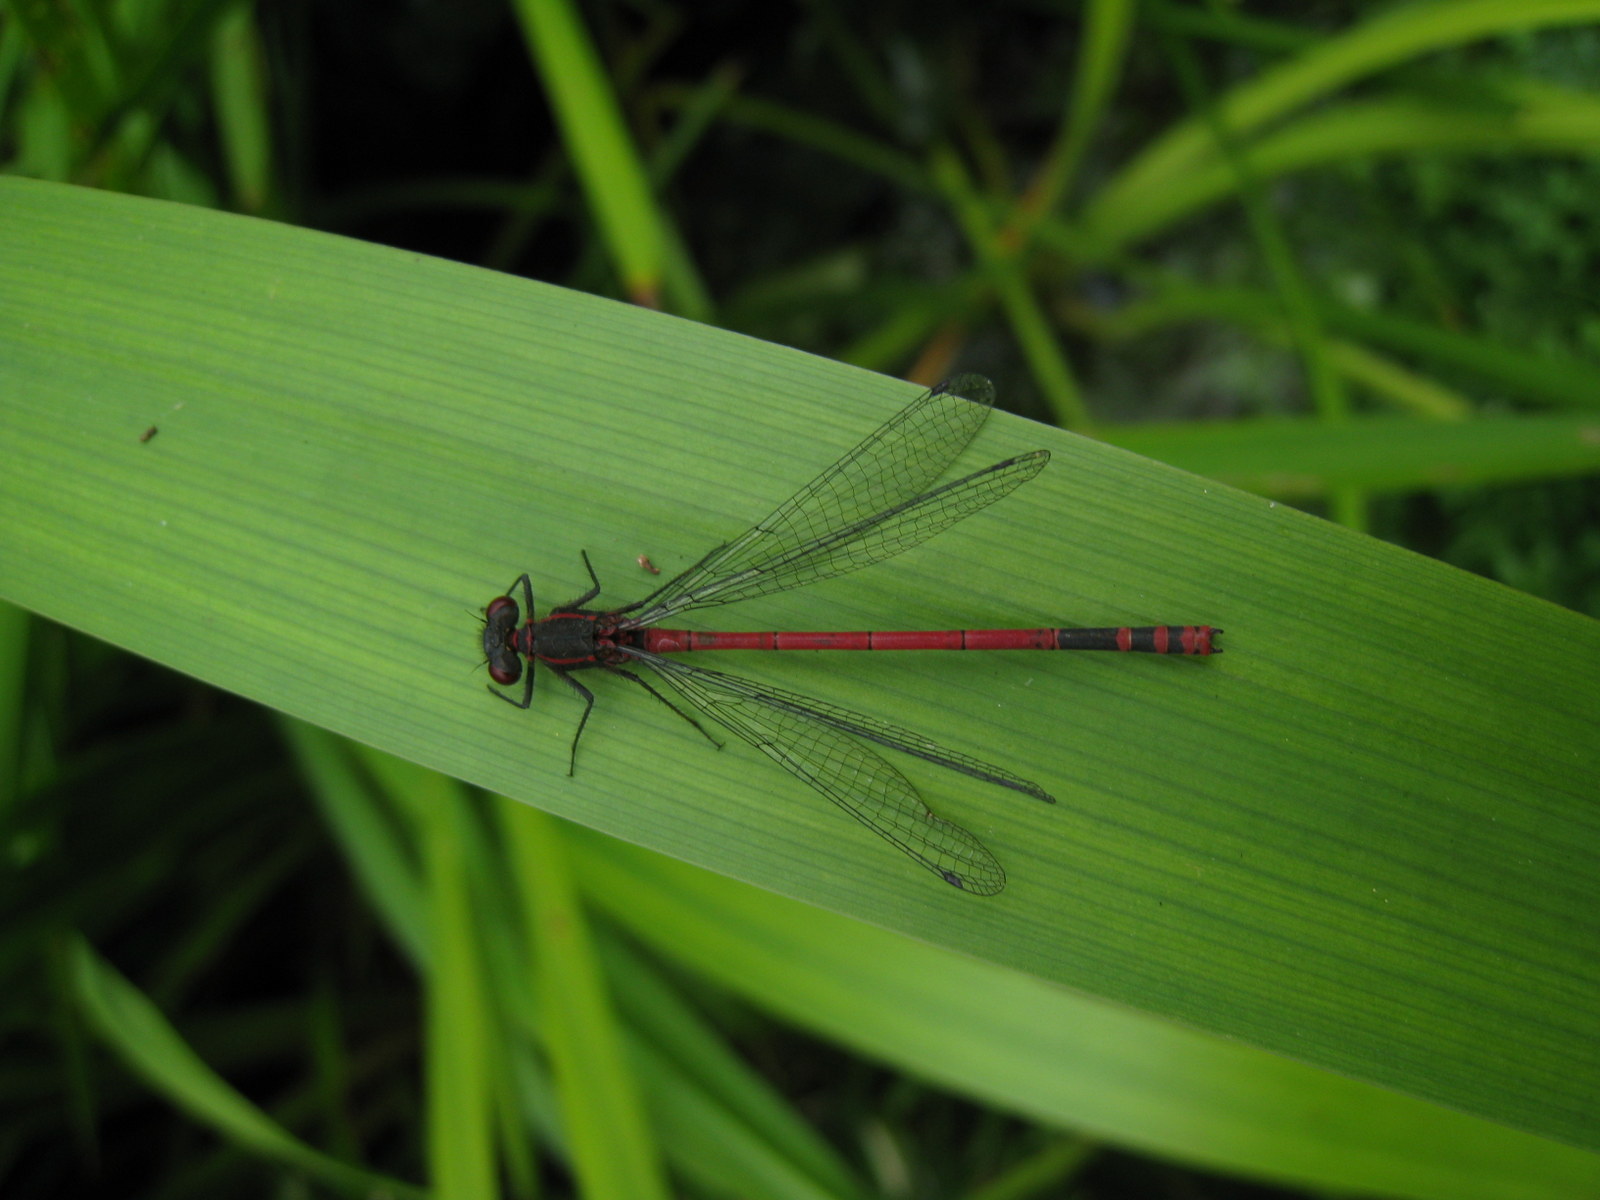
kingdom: Animalia
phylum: Arthropoda
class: Insecta
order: Odonata
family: Coenagrionidae
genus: Pyrrhosoma
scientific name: Pyrrhosoma nymphula
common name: Large red damsel
